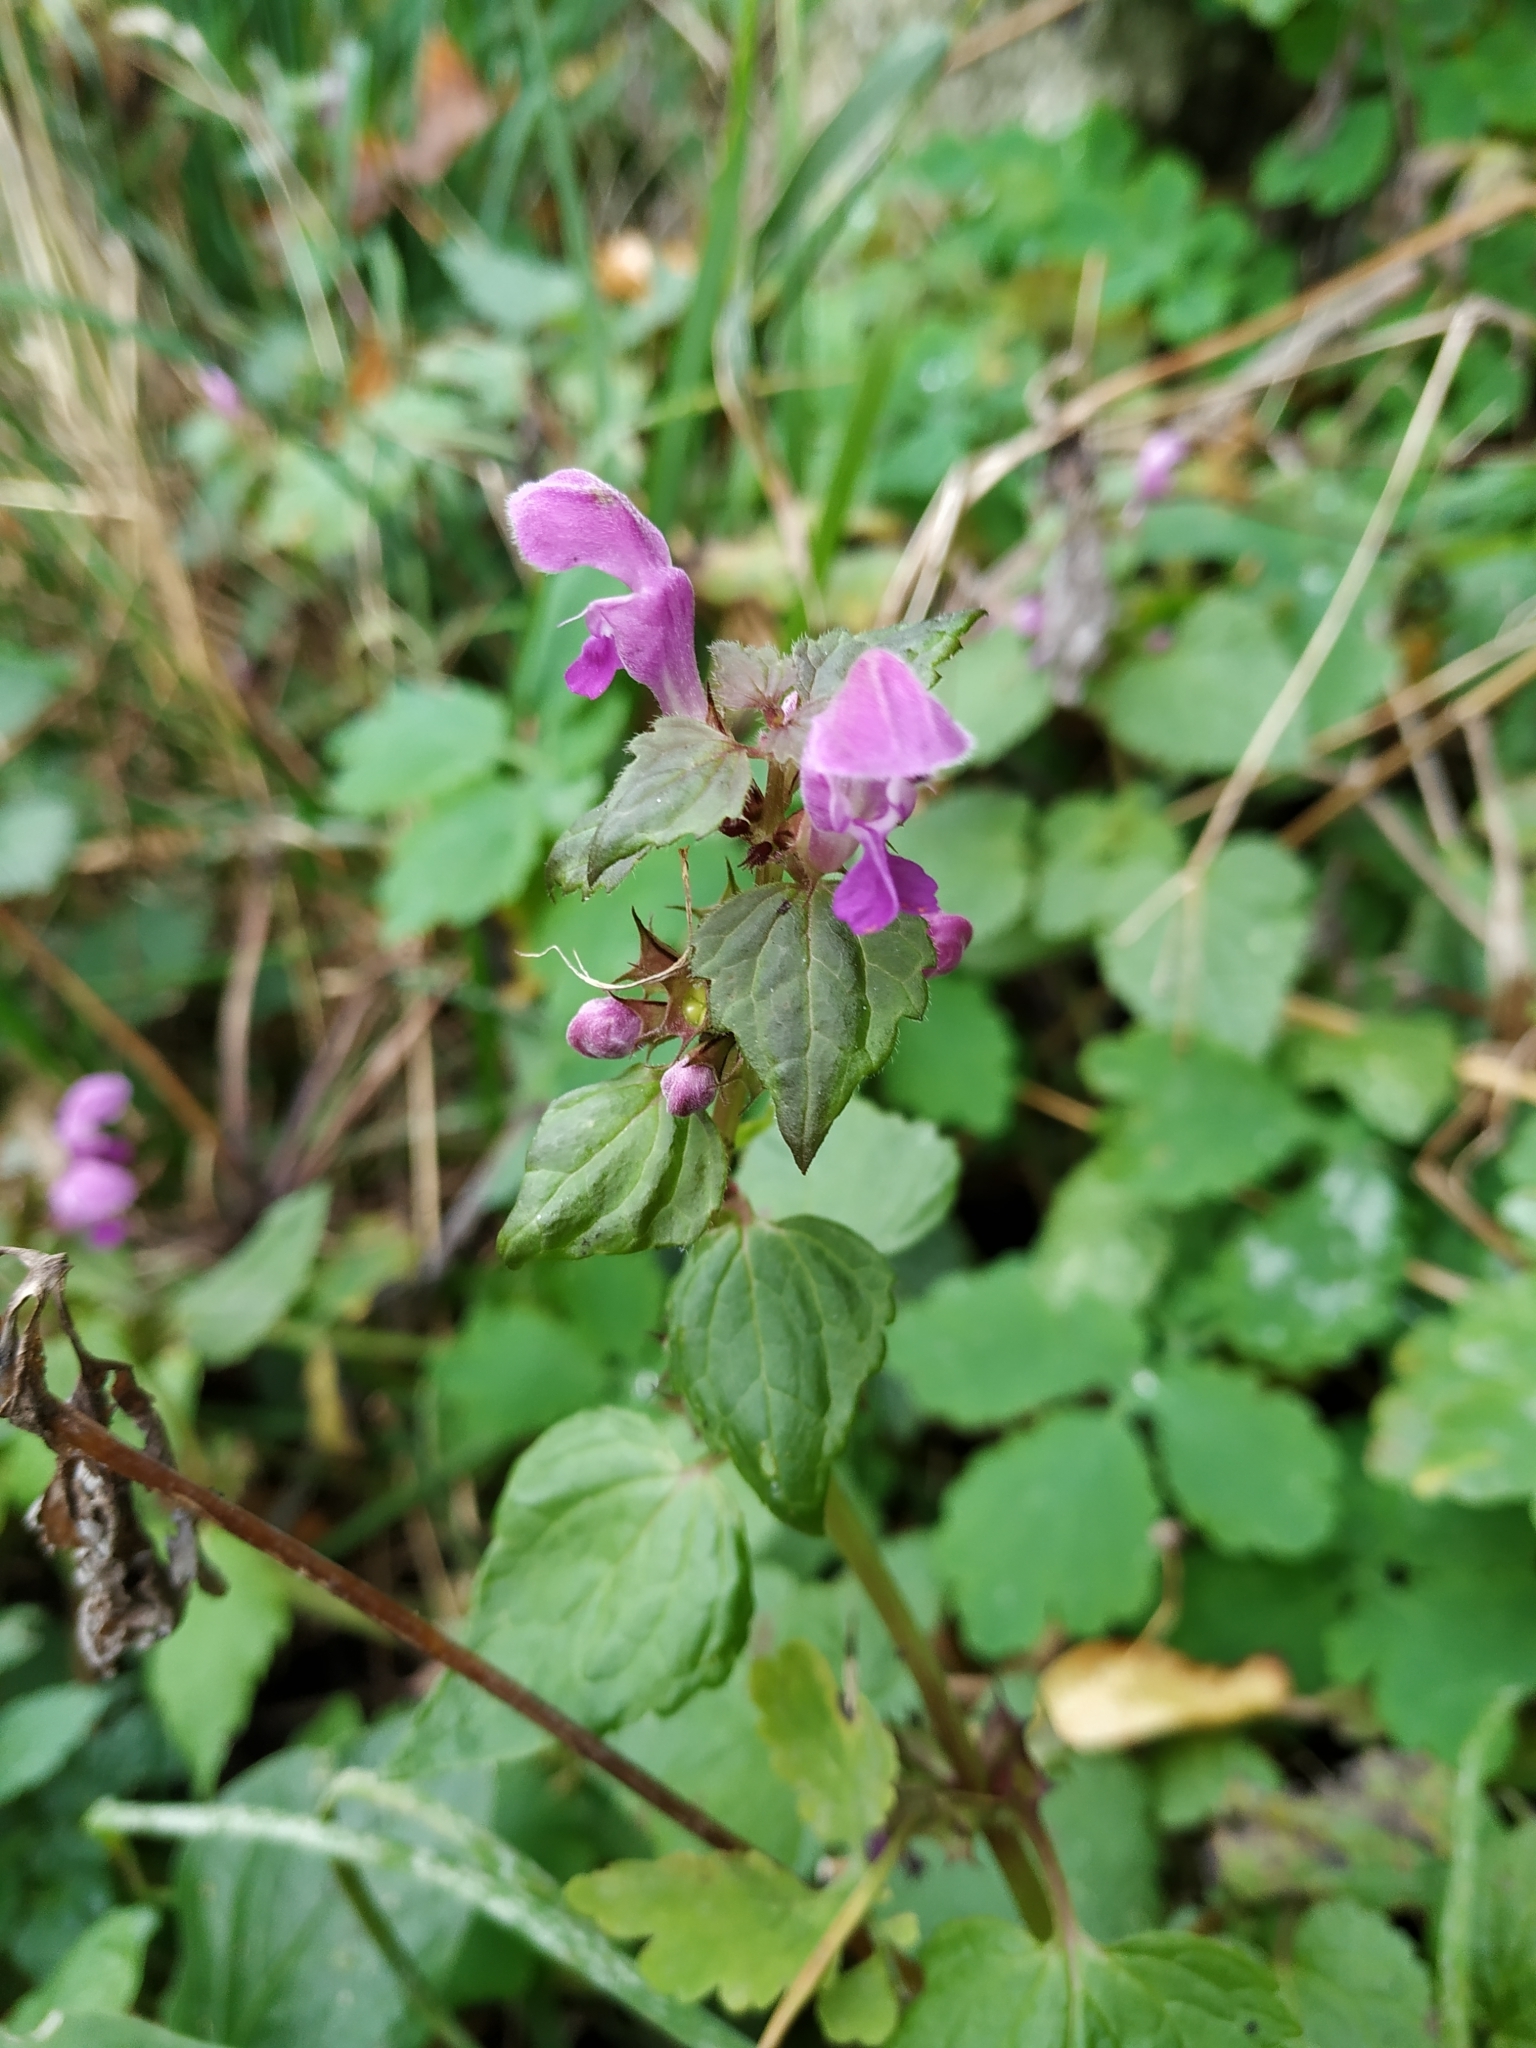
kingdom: Plantae
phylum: Tracheophyta
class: Magnoliopsida
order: Lamiales
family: Lamiaceae
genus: Lamium
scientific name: Lamium maculatum
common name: Spotted dead-nettle
